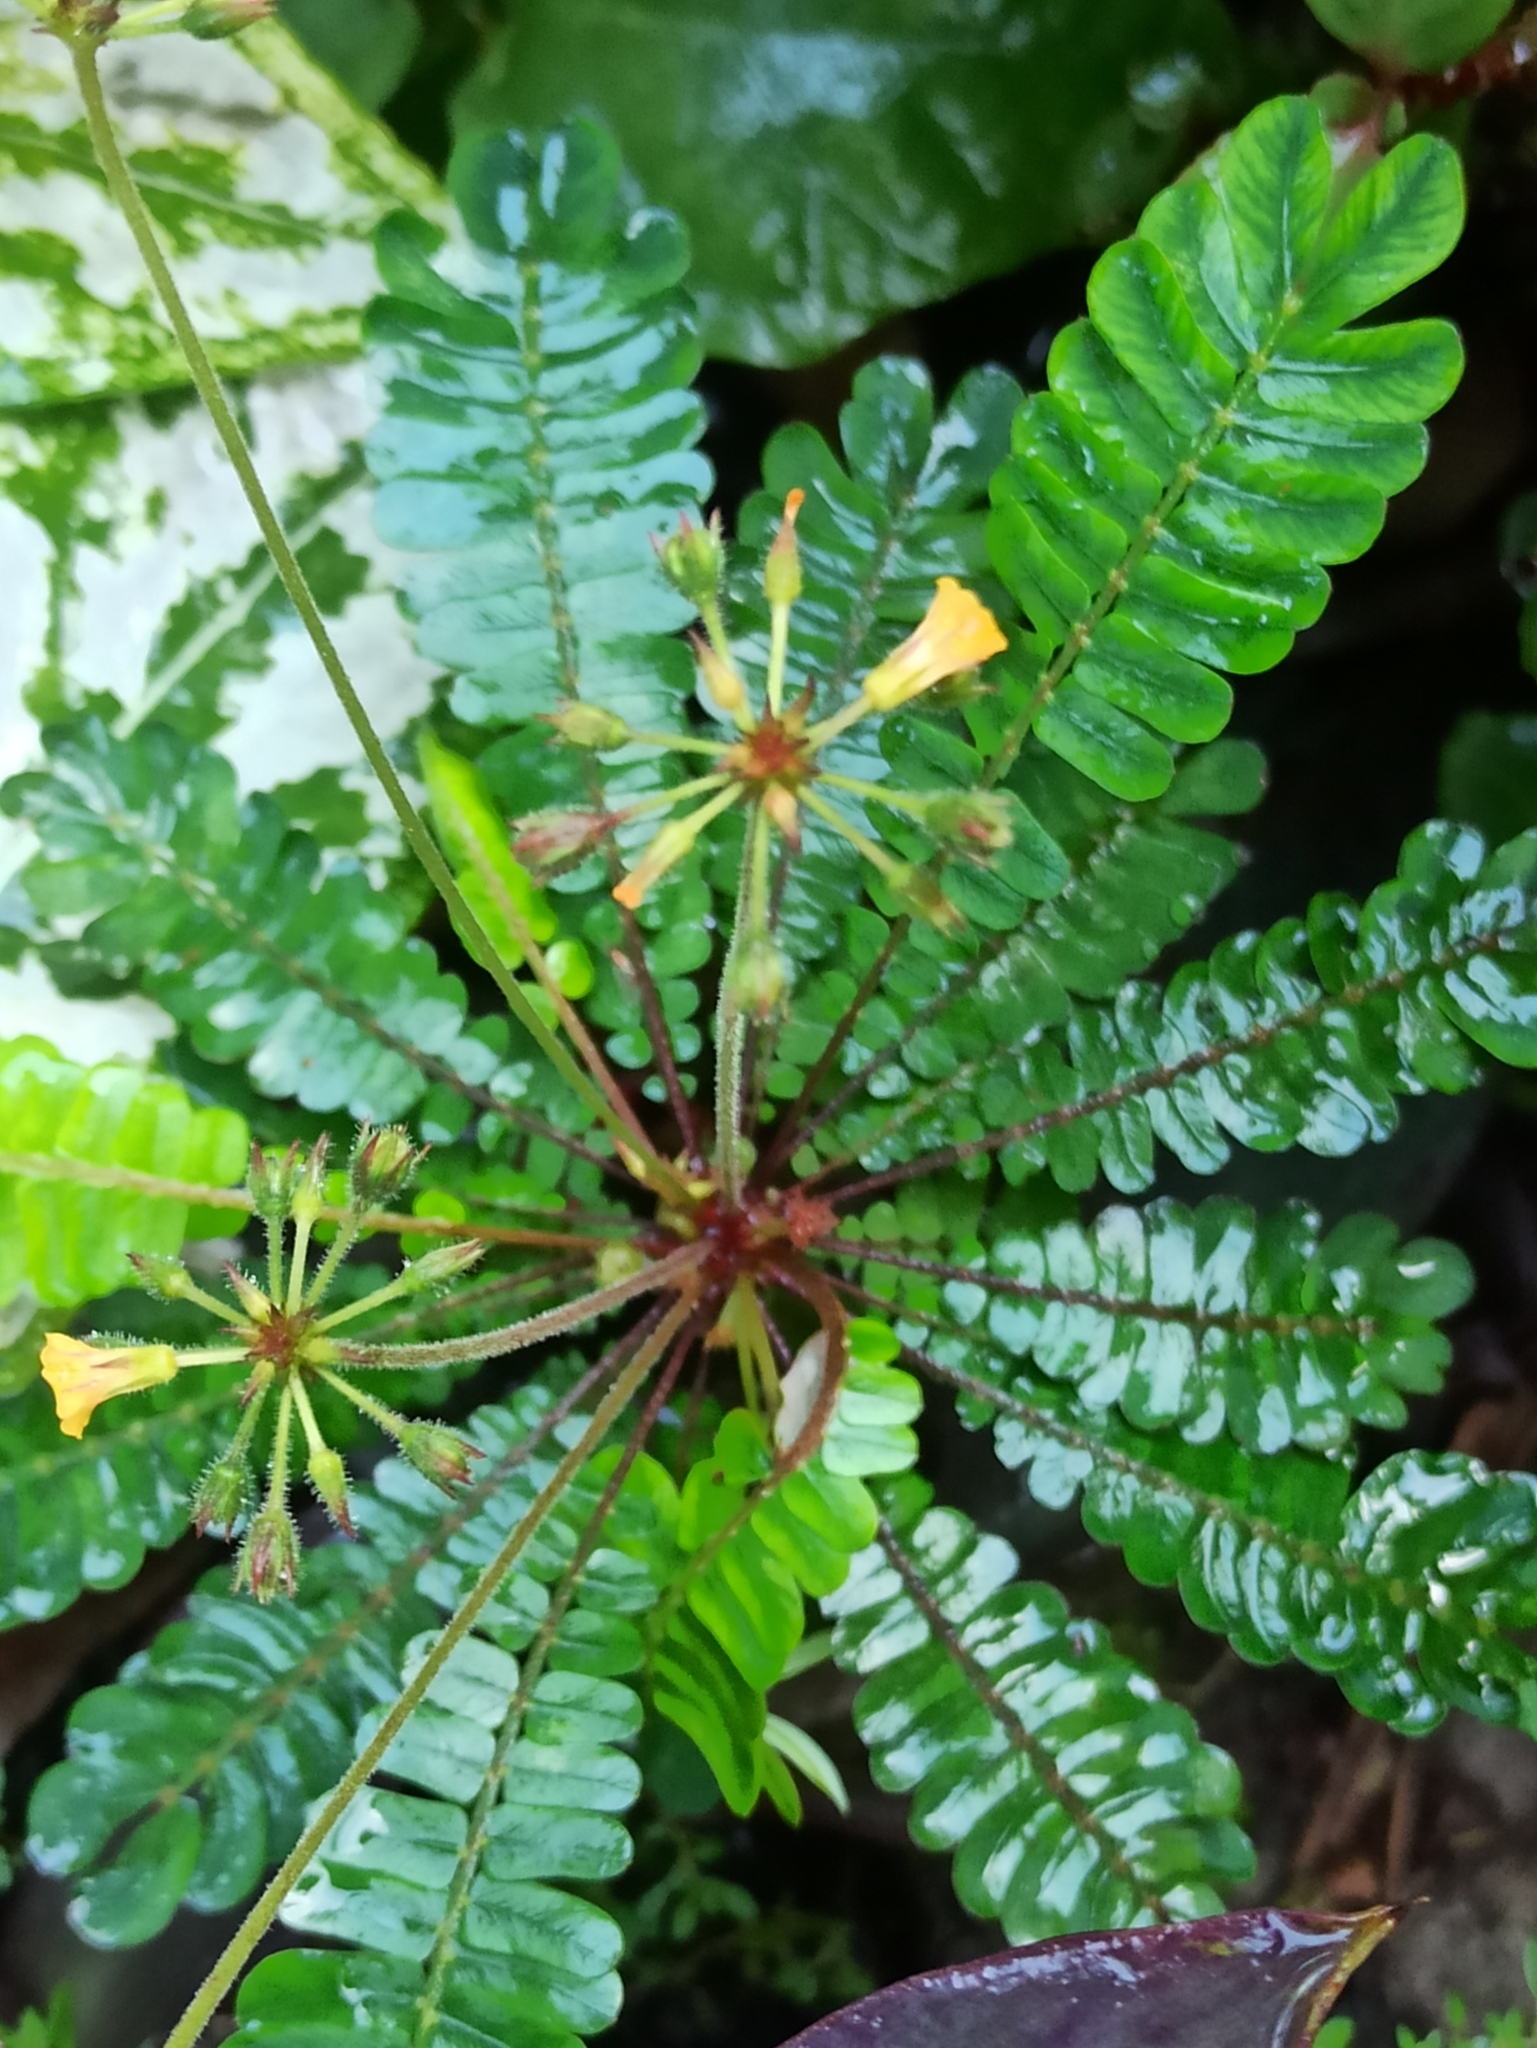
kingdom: Plantae
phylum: Tracheophyta
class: Magnoliopsida
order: Oxalidales
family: Oxalidaceae
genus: Biophytum
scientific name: Biophytum sensitivum
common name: Lifeplant
